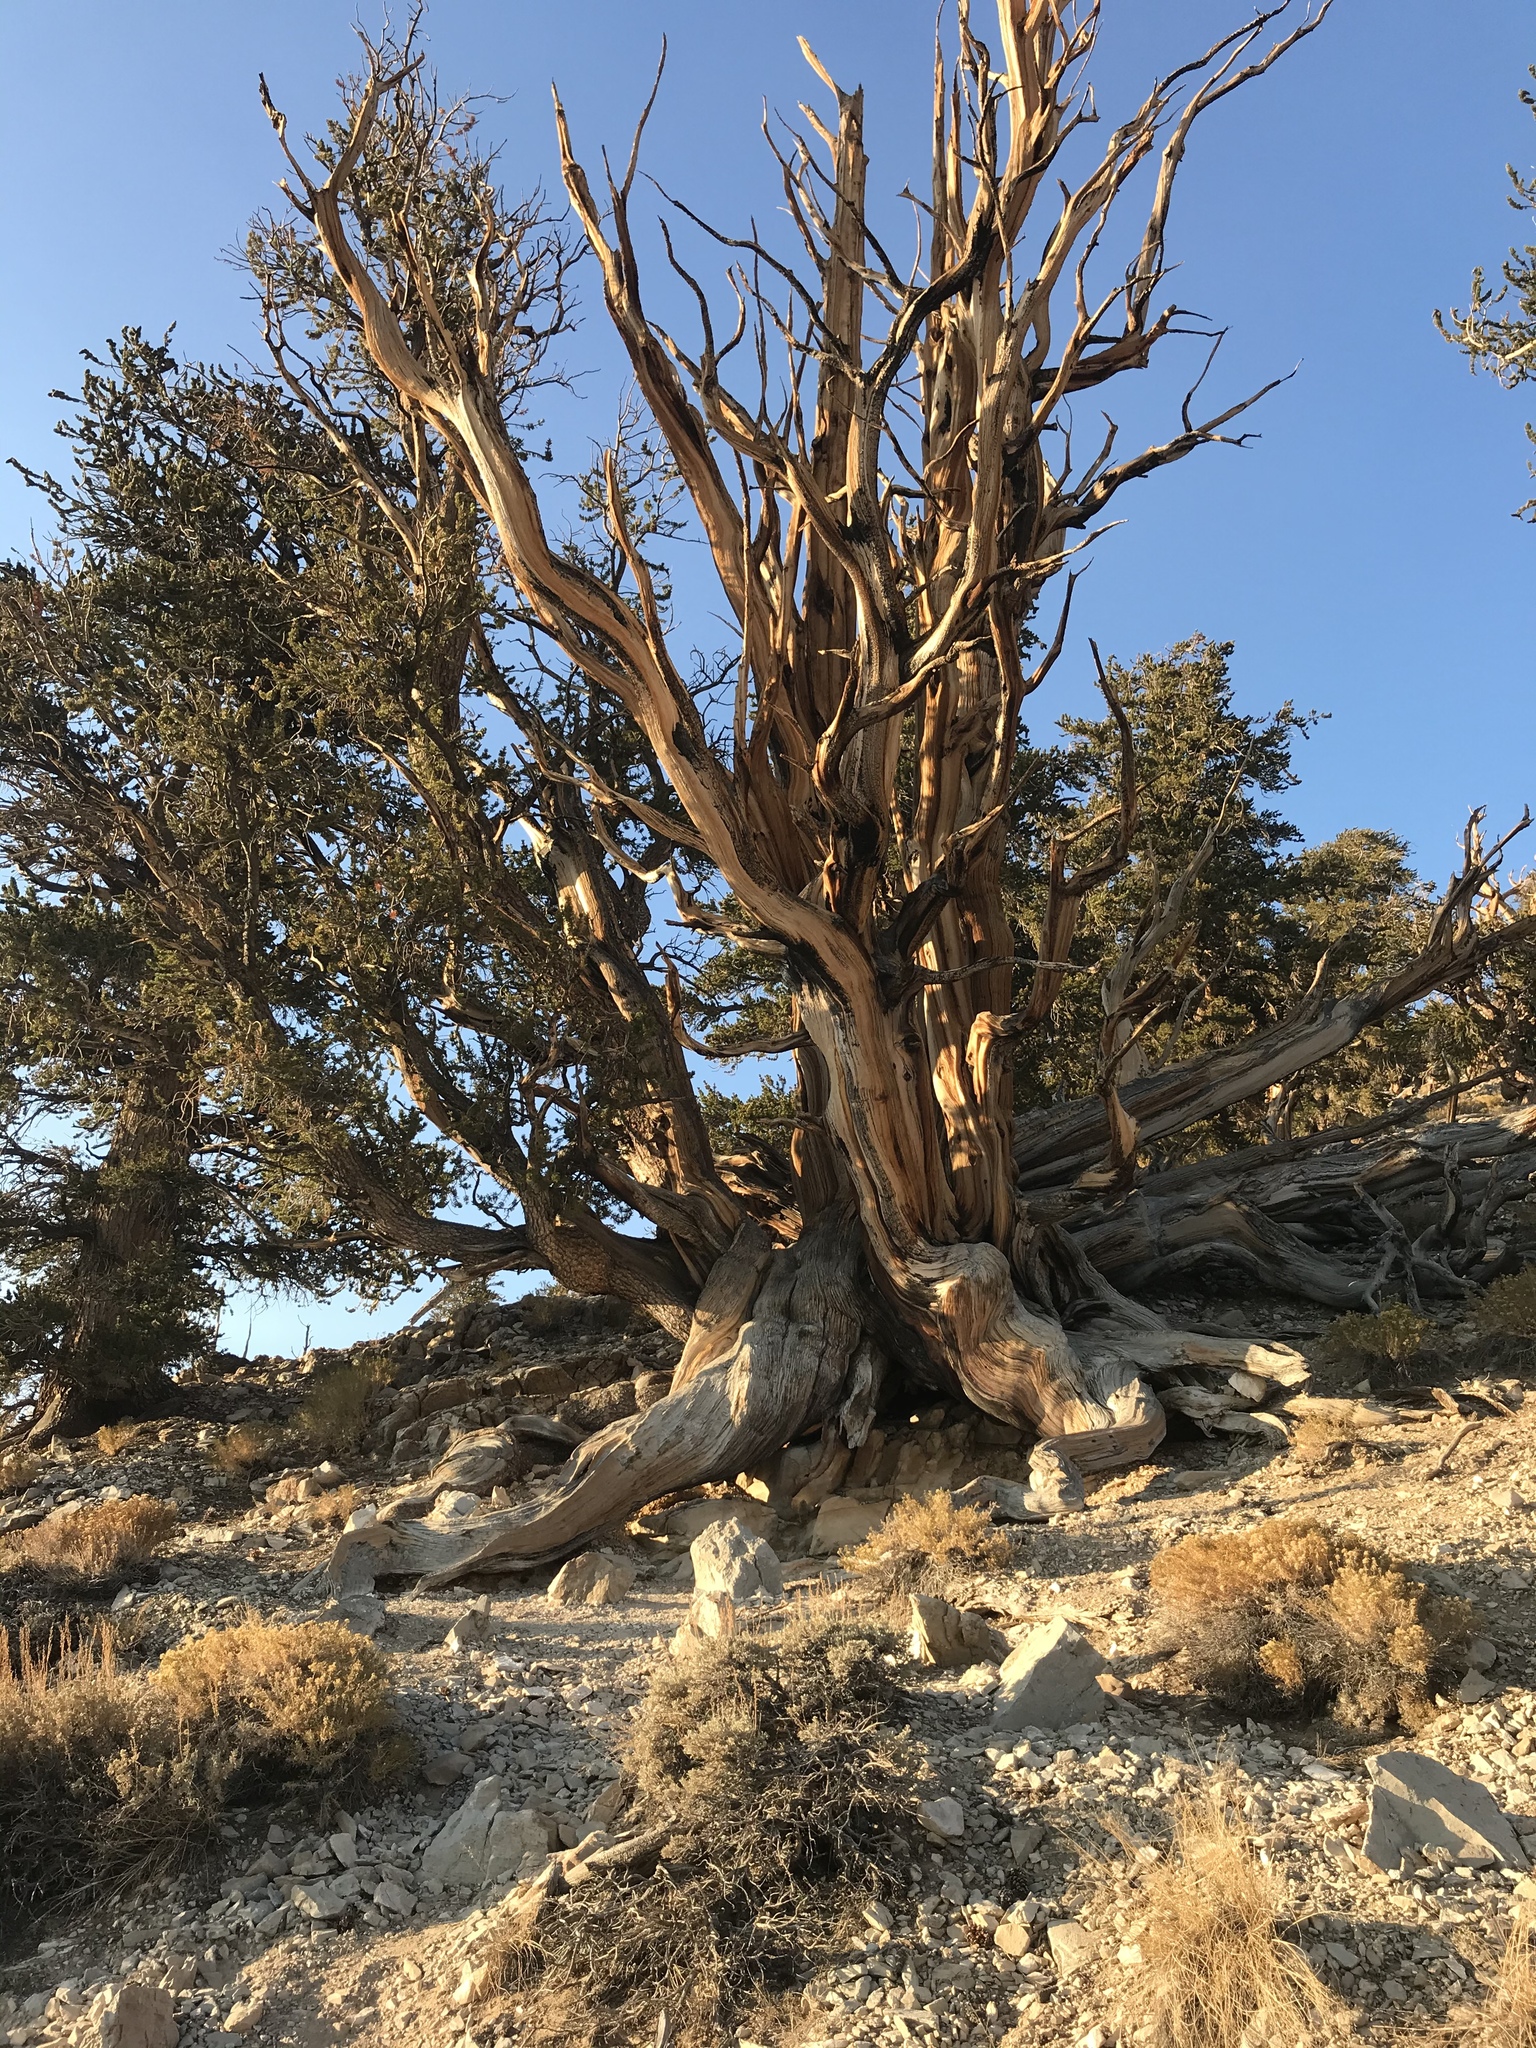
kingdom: Plantae
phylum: Tracheophyta
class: Pinopsida
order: Pinales
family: Pinaceae
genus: Pinus
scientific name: Pinus longaeva
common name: Intermountain bristlecone pine
